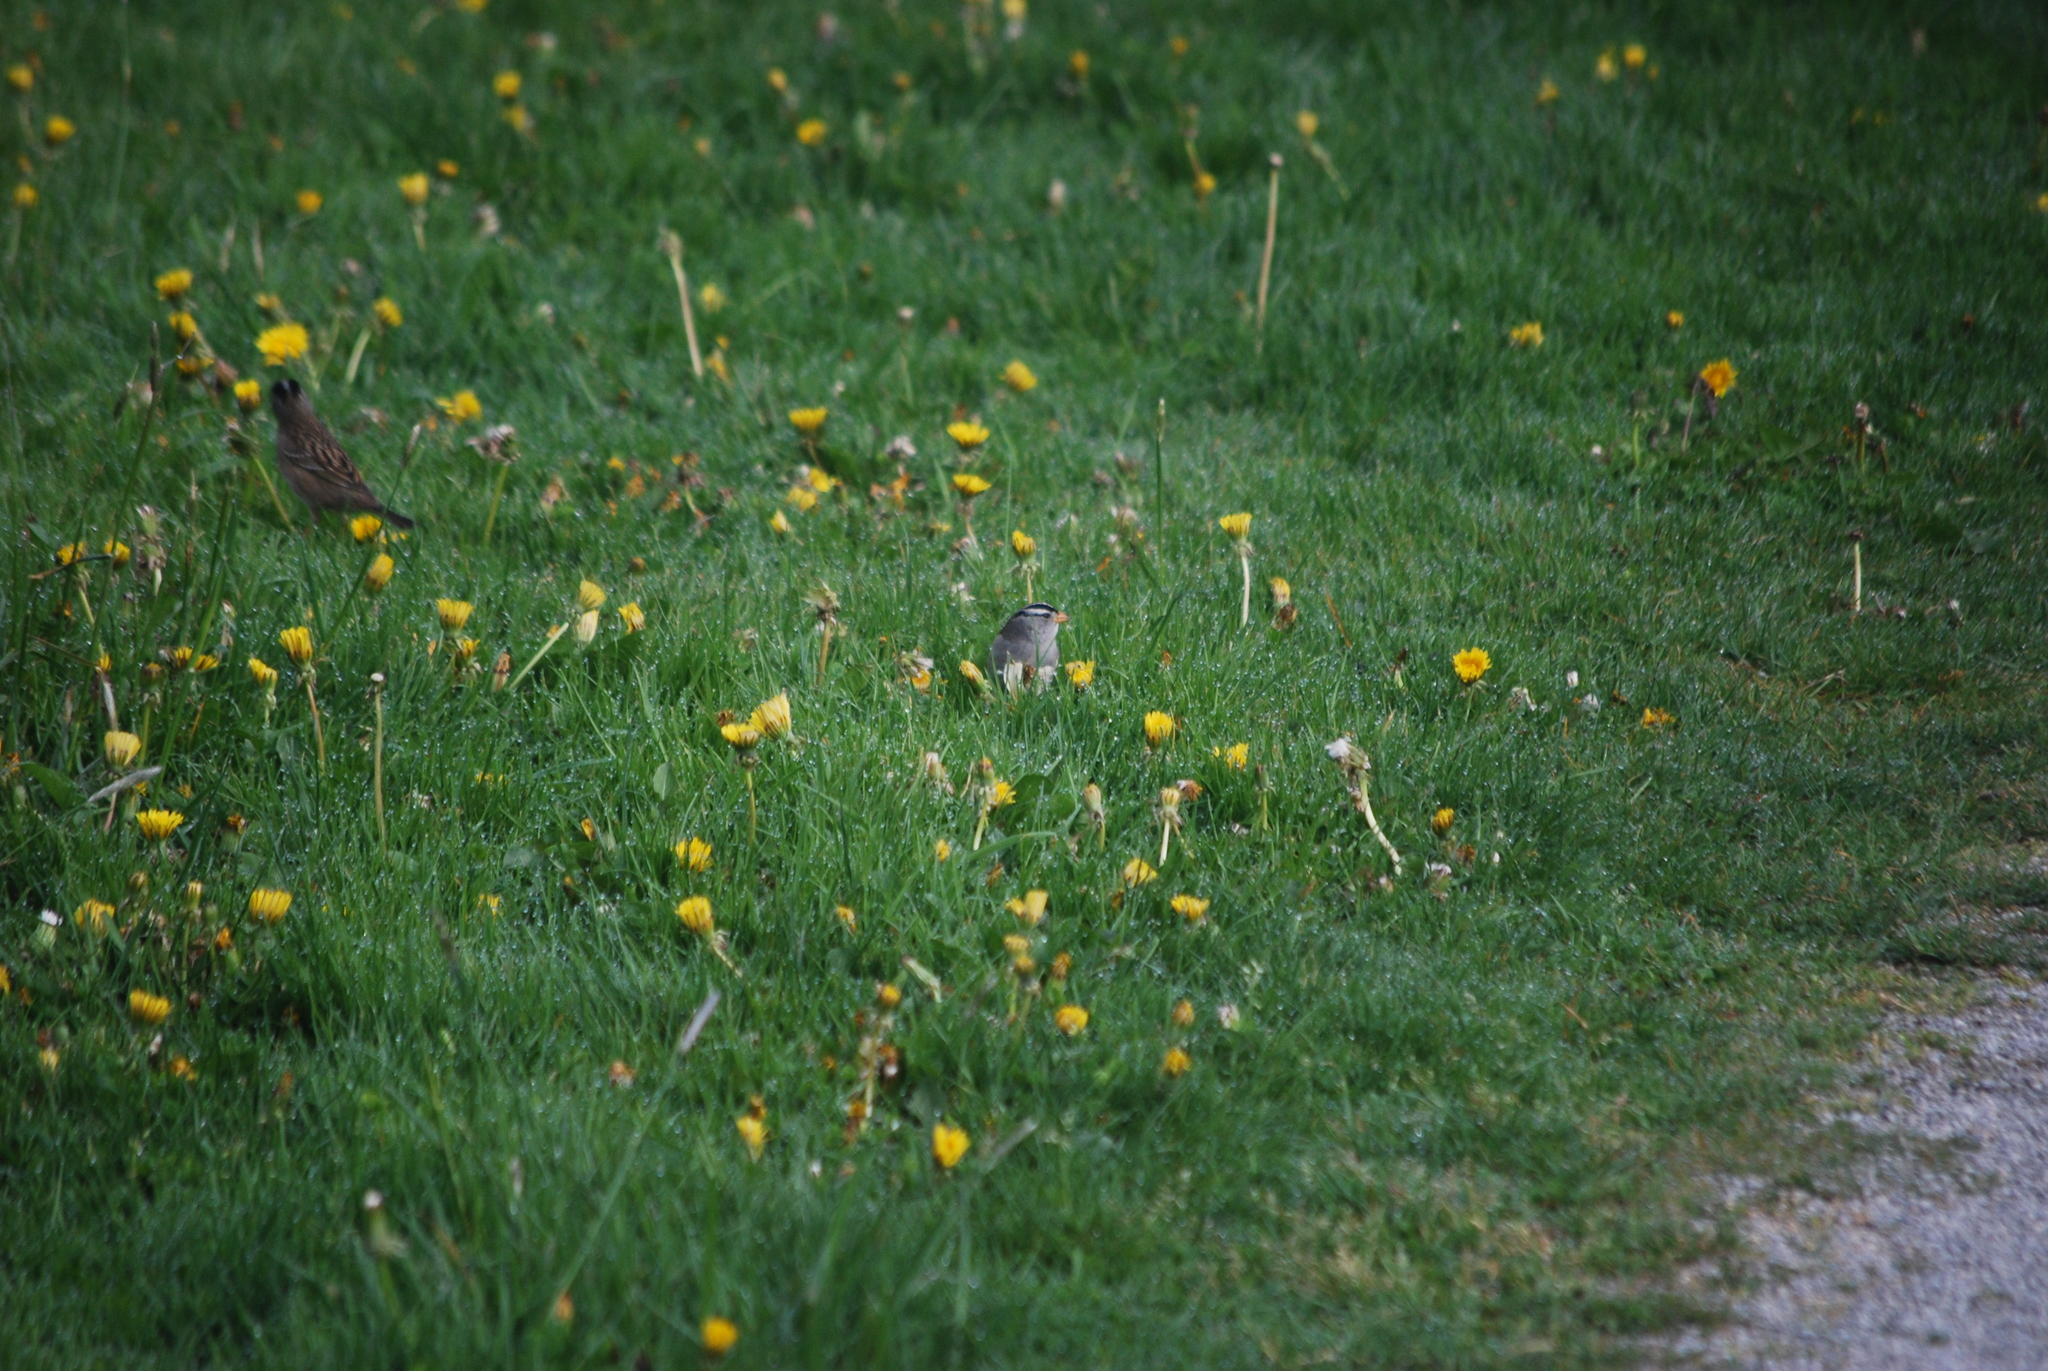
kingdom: Animalia
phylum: Chordata
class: Aves
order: Passeriformes
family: Passerellidae
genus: Zonotrichia
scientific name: Zonotrichia leucophrys
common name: White-crowned sparrow
